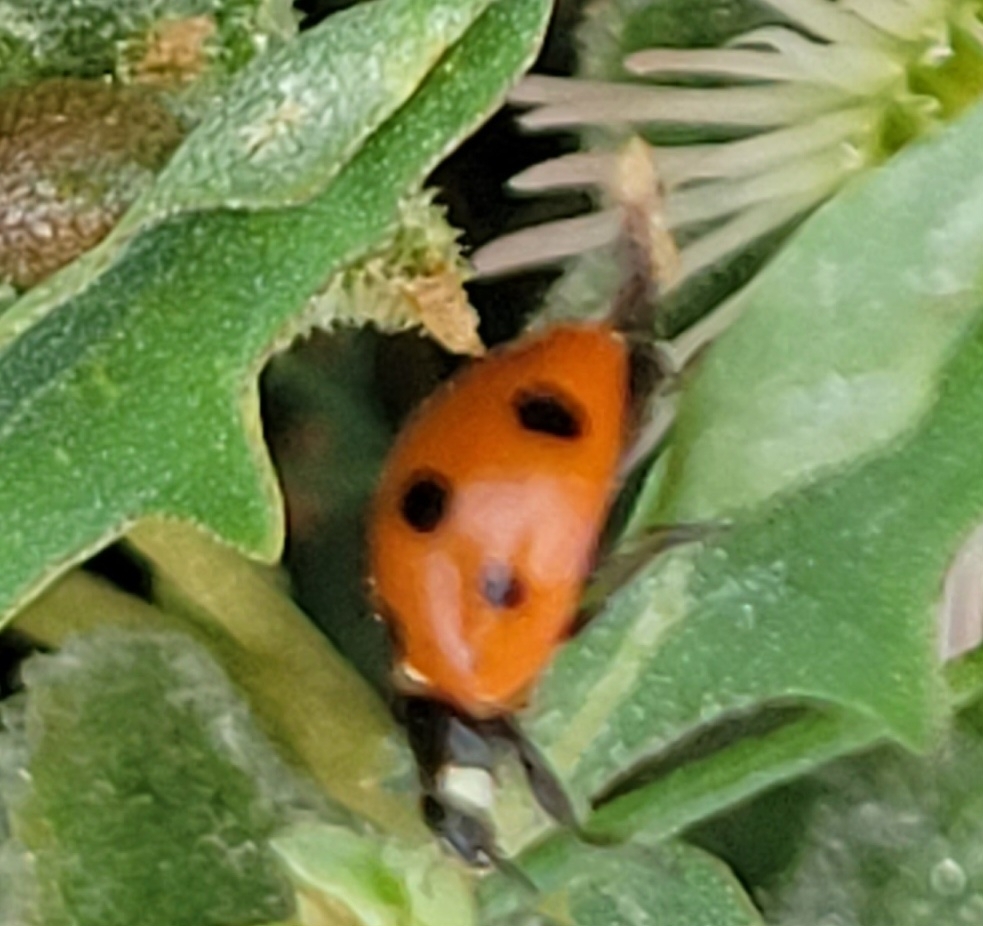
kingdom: Animalia
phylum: Arthropoda
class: Insecta
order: Coleoptera
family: Coccinellidae
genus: Coccinella
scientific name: Coccinella septempunctata
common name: Sevenspotted lady beetle
